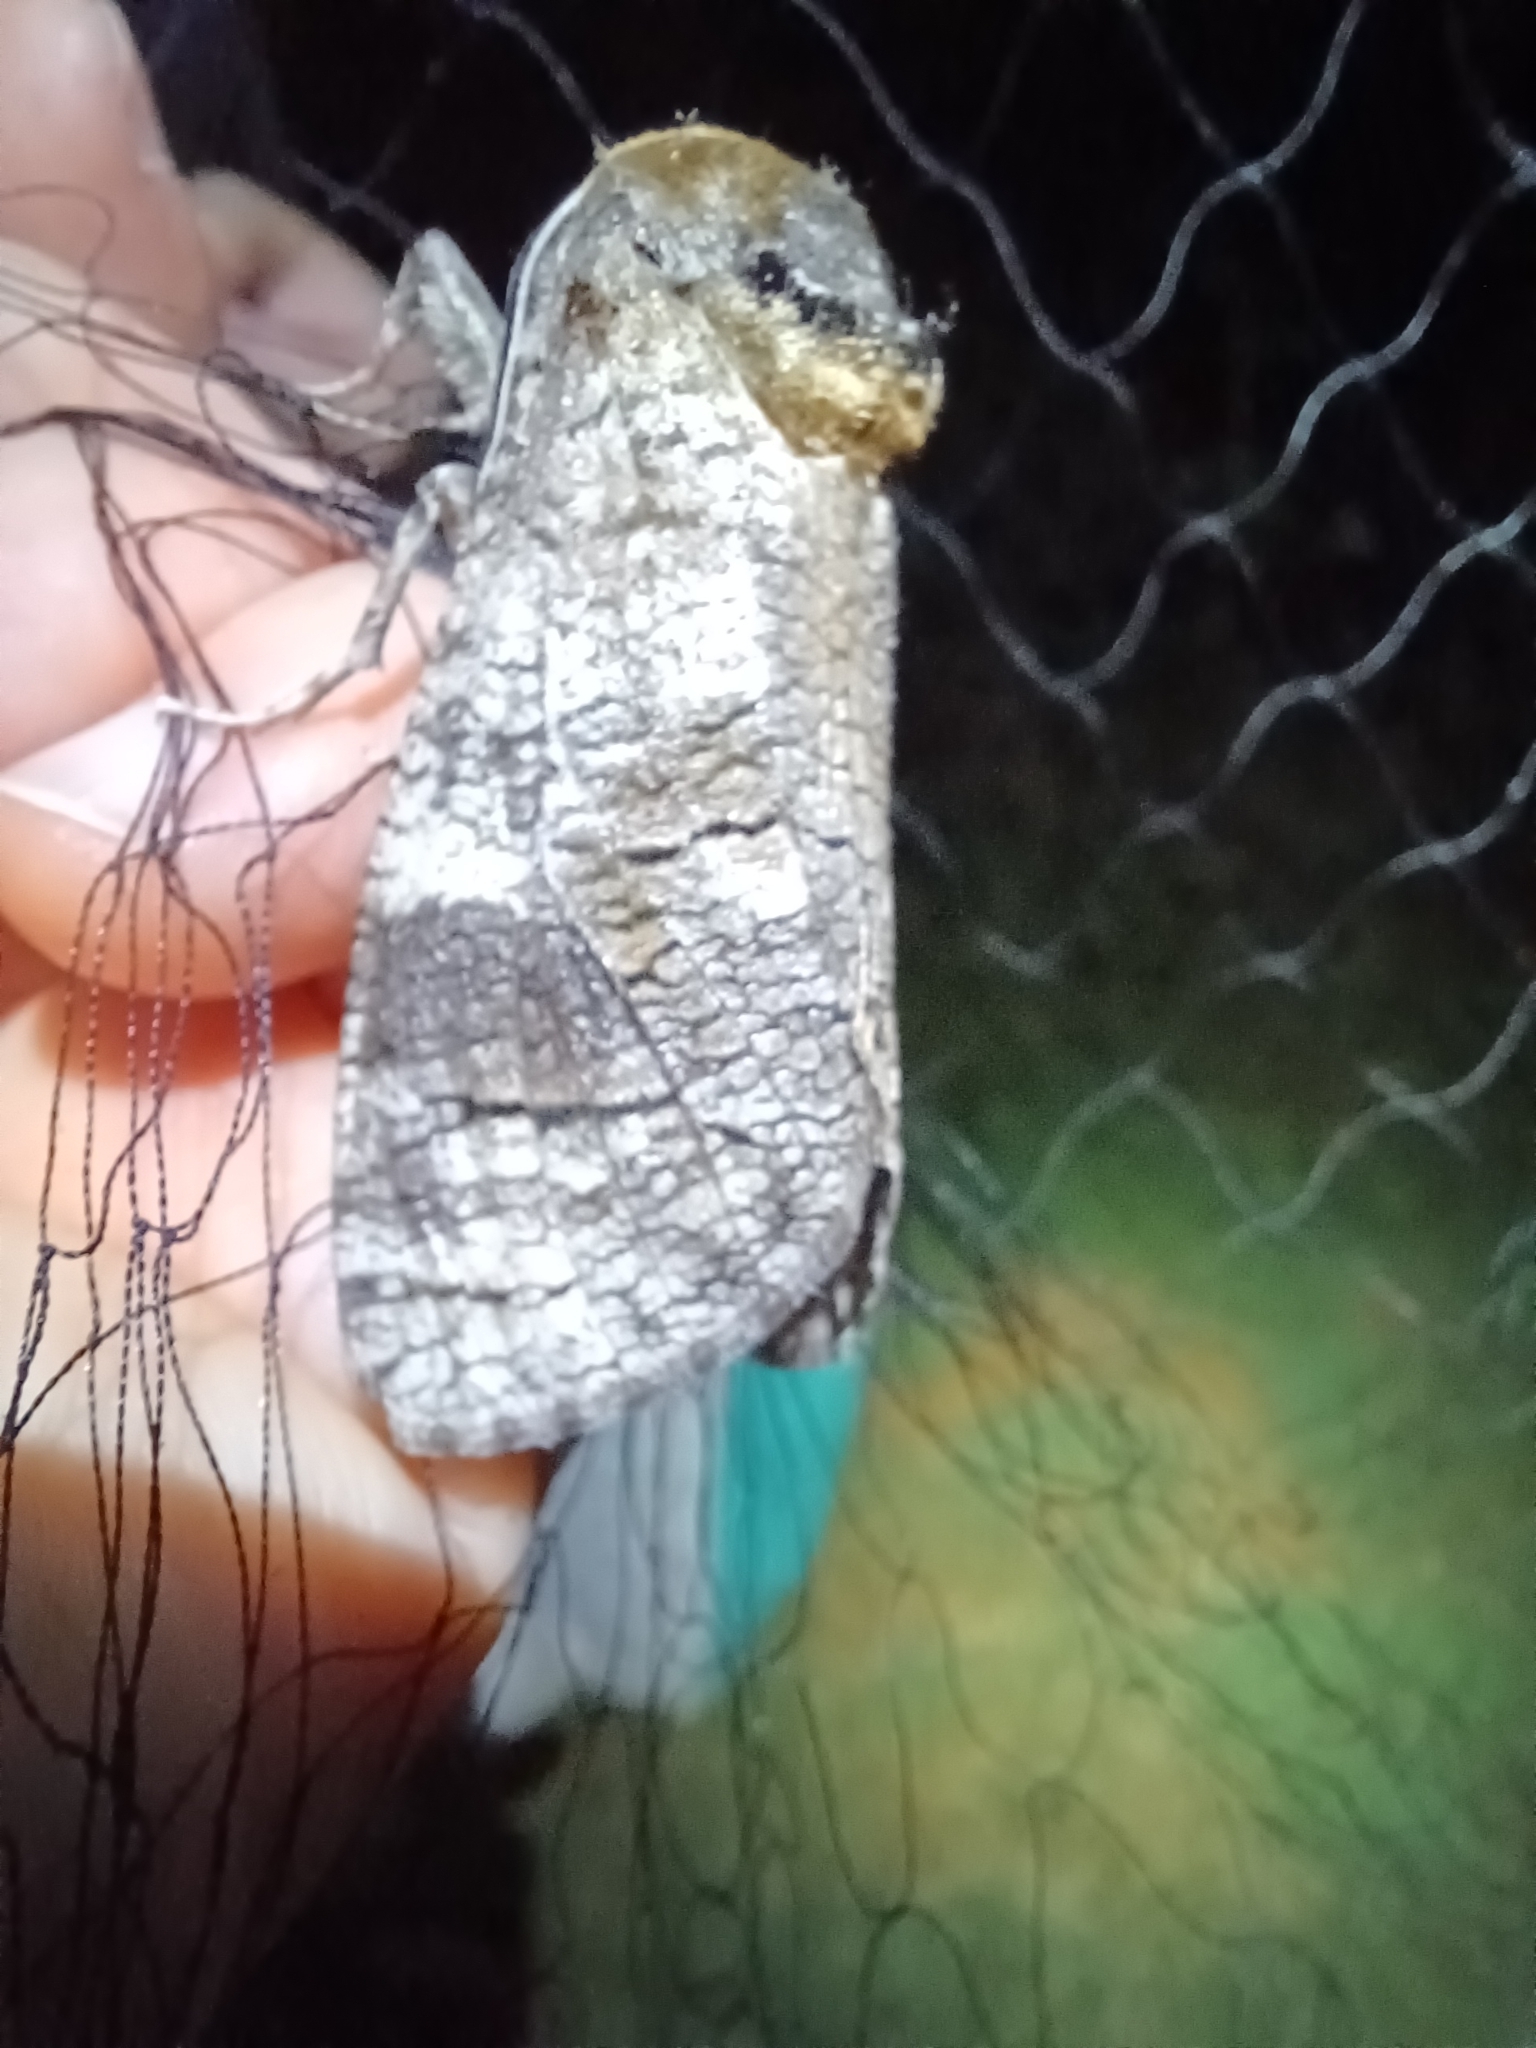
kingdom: Animalia
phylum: Arthropoda
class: Insecta
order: Lepidoptera
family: Cossidae
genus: Cossus
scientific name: Cossus cossus
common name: Goat moth
